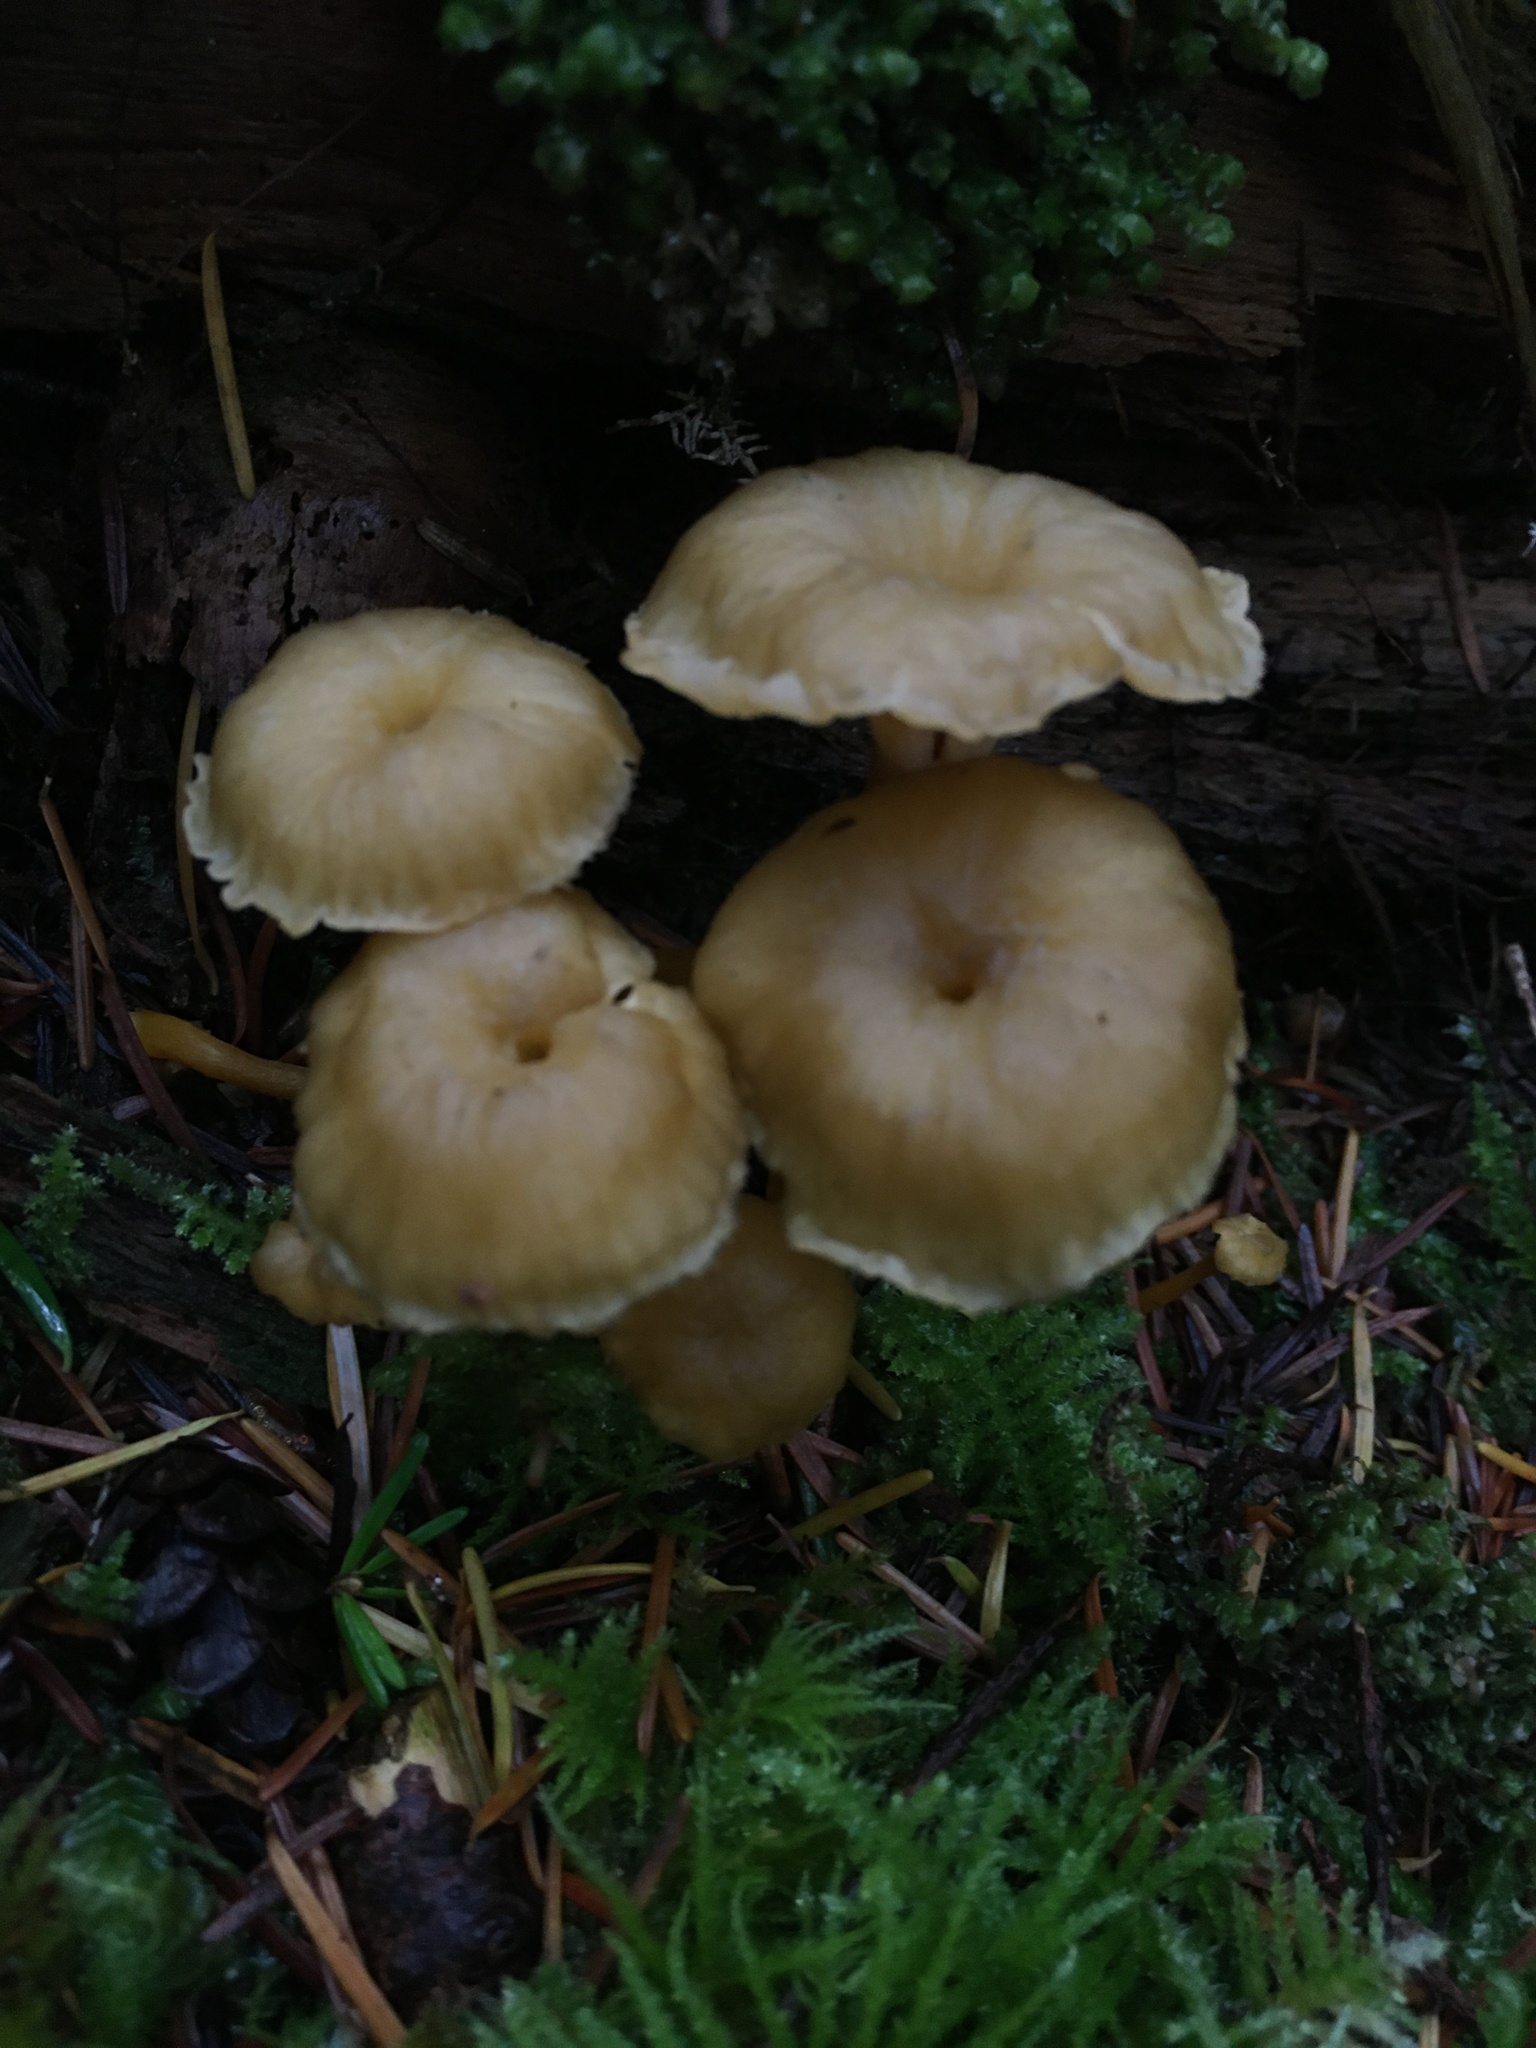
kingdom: Fungi
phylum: Basidiomycota
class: Agaricomycetes
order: Cantharellales
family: Hydnaceae
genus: Craterellus
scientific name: Craterellus tubaeformis
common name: Yellowfoot
